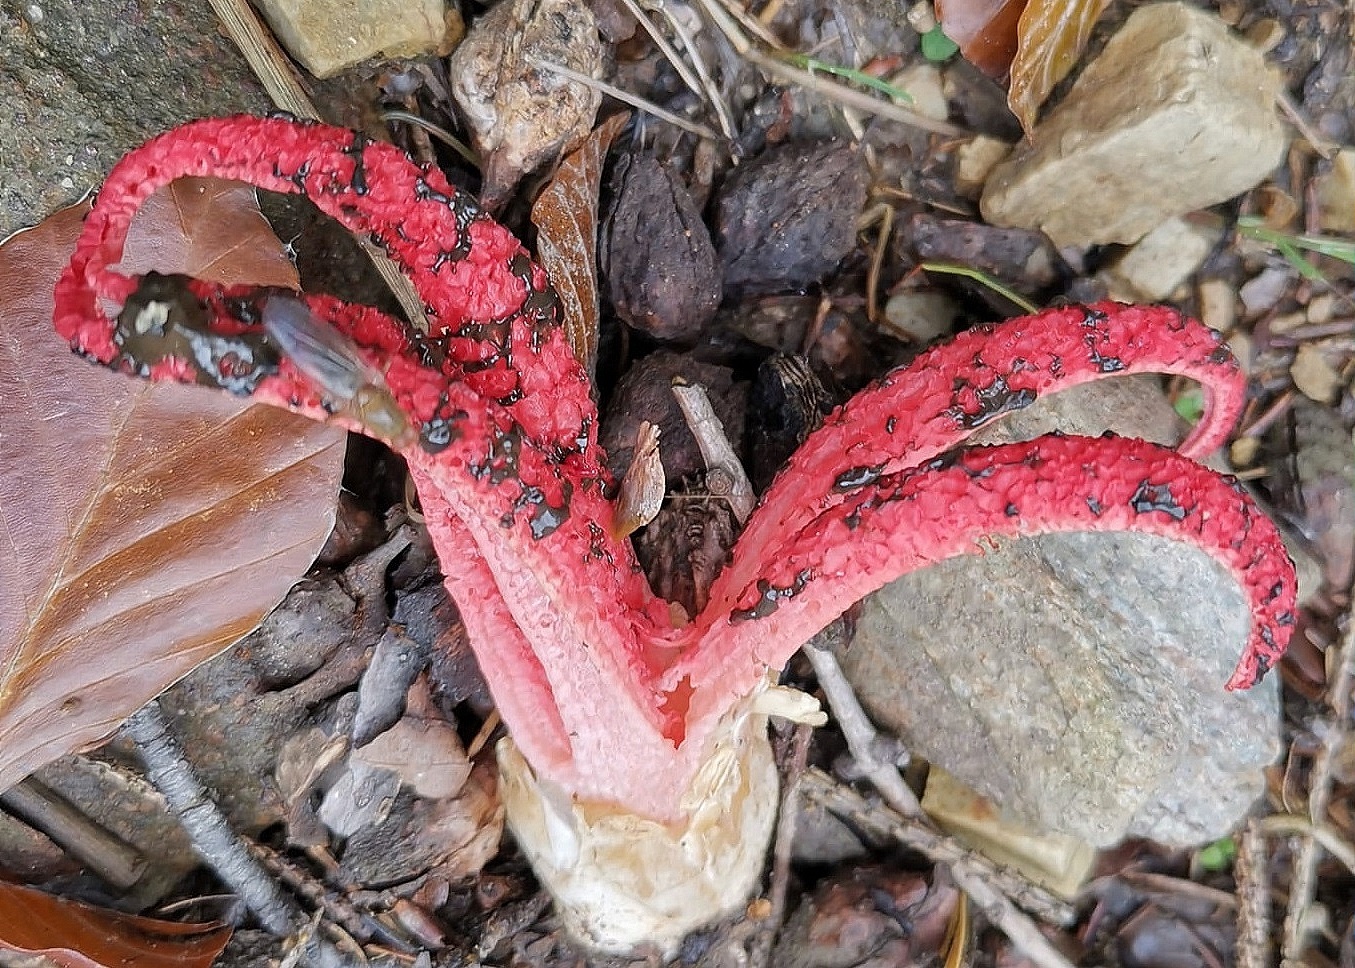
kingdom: Fungi
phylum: Basidiomycota
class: Agaricomycetes
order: Phallales
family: Phallaceae
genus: Clathrus
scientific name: Clathrus archeri
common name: Devil's fingers
